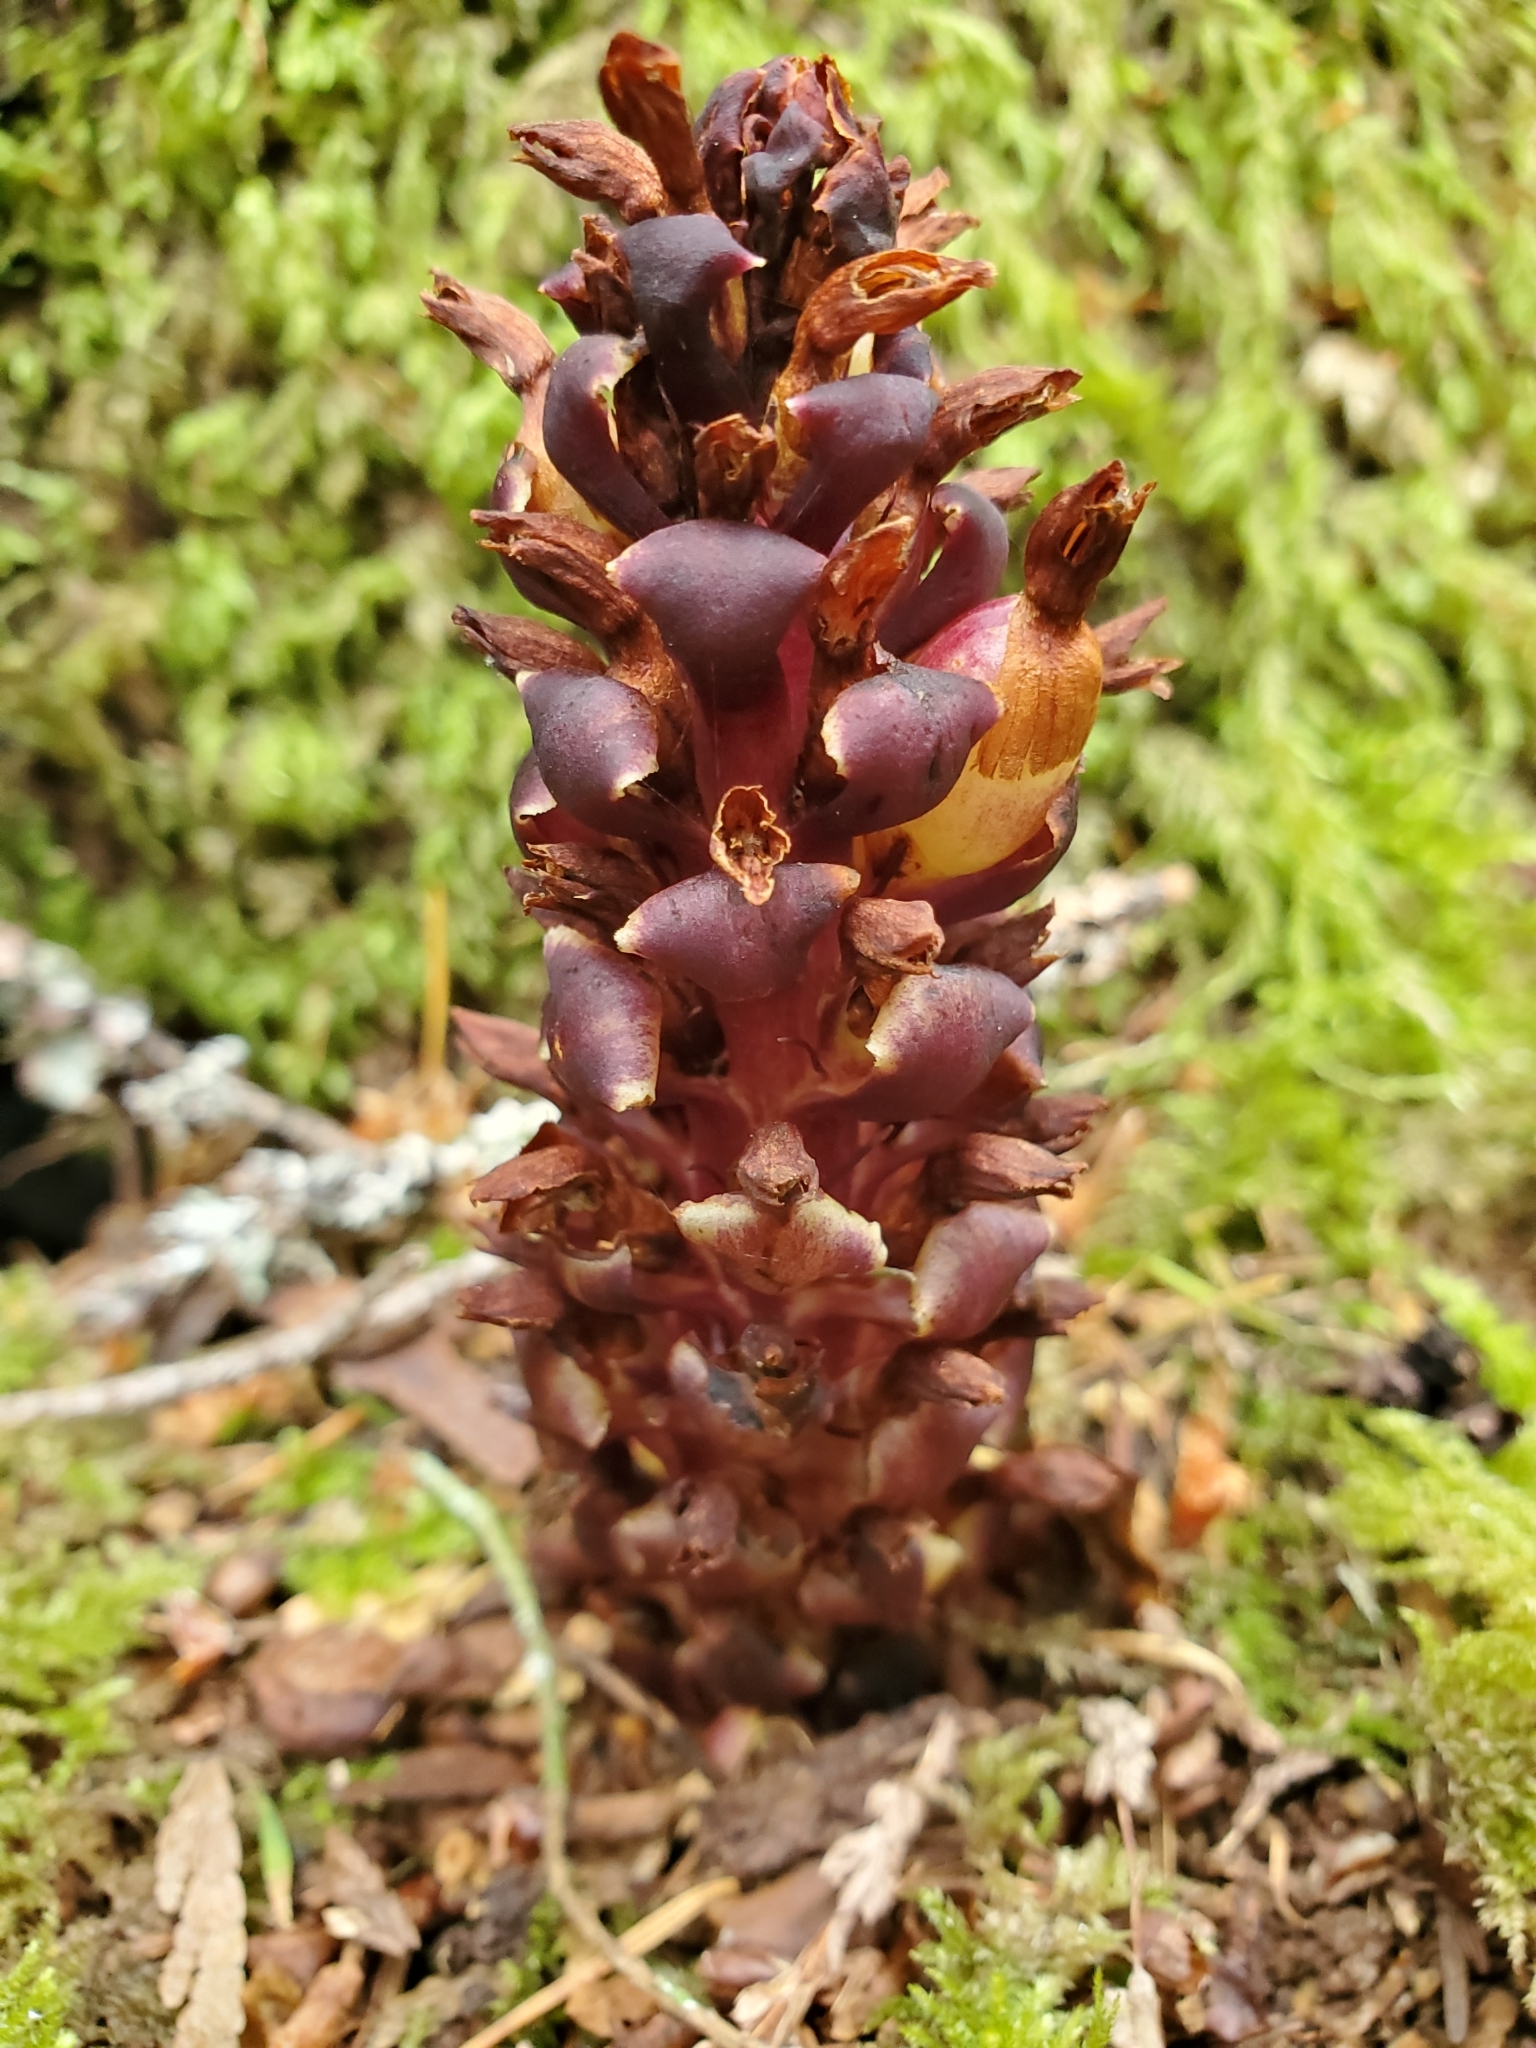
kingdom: Plantae
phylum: Tracheophyta
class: Magnoliopsida
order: Lamiales
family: Orobanchaceae
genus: Kopsiopsis
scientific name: Kopsiopsis hookeri
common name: Hooker's groundcone
